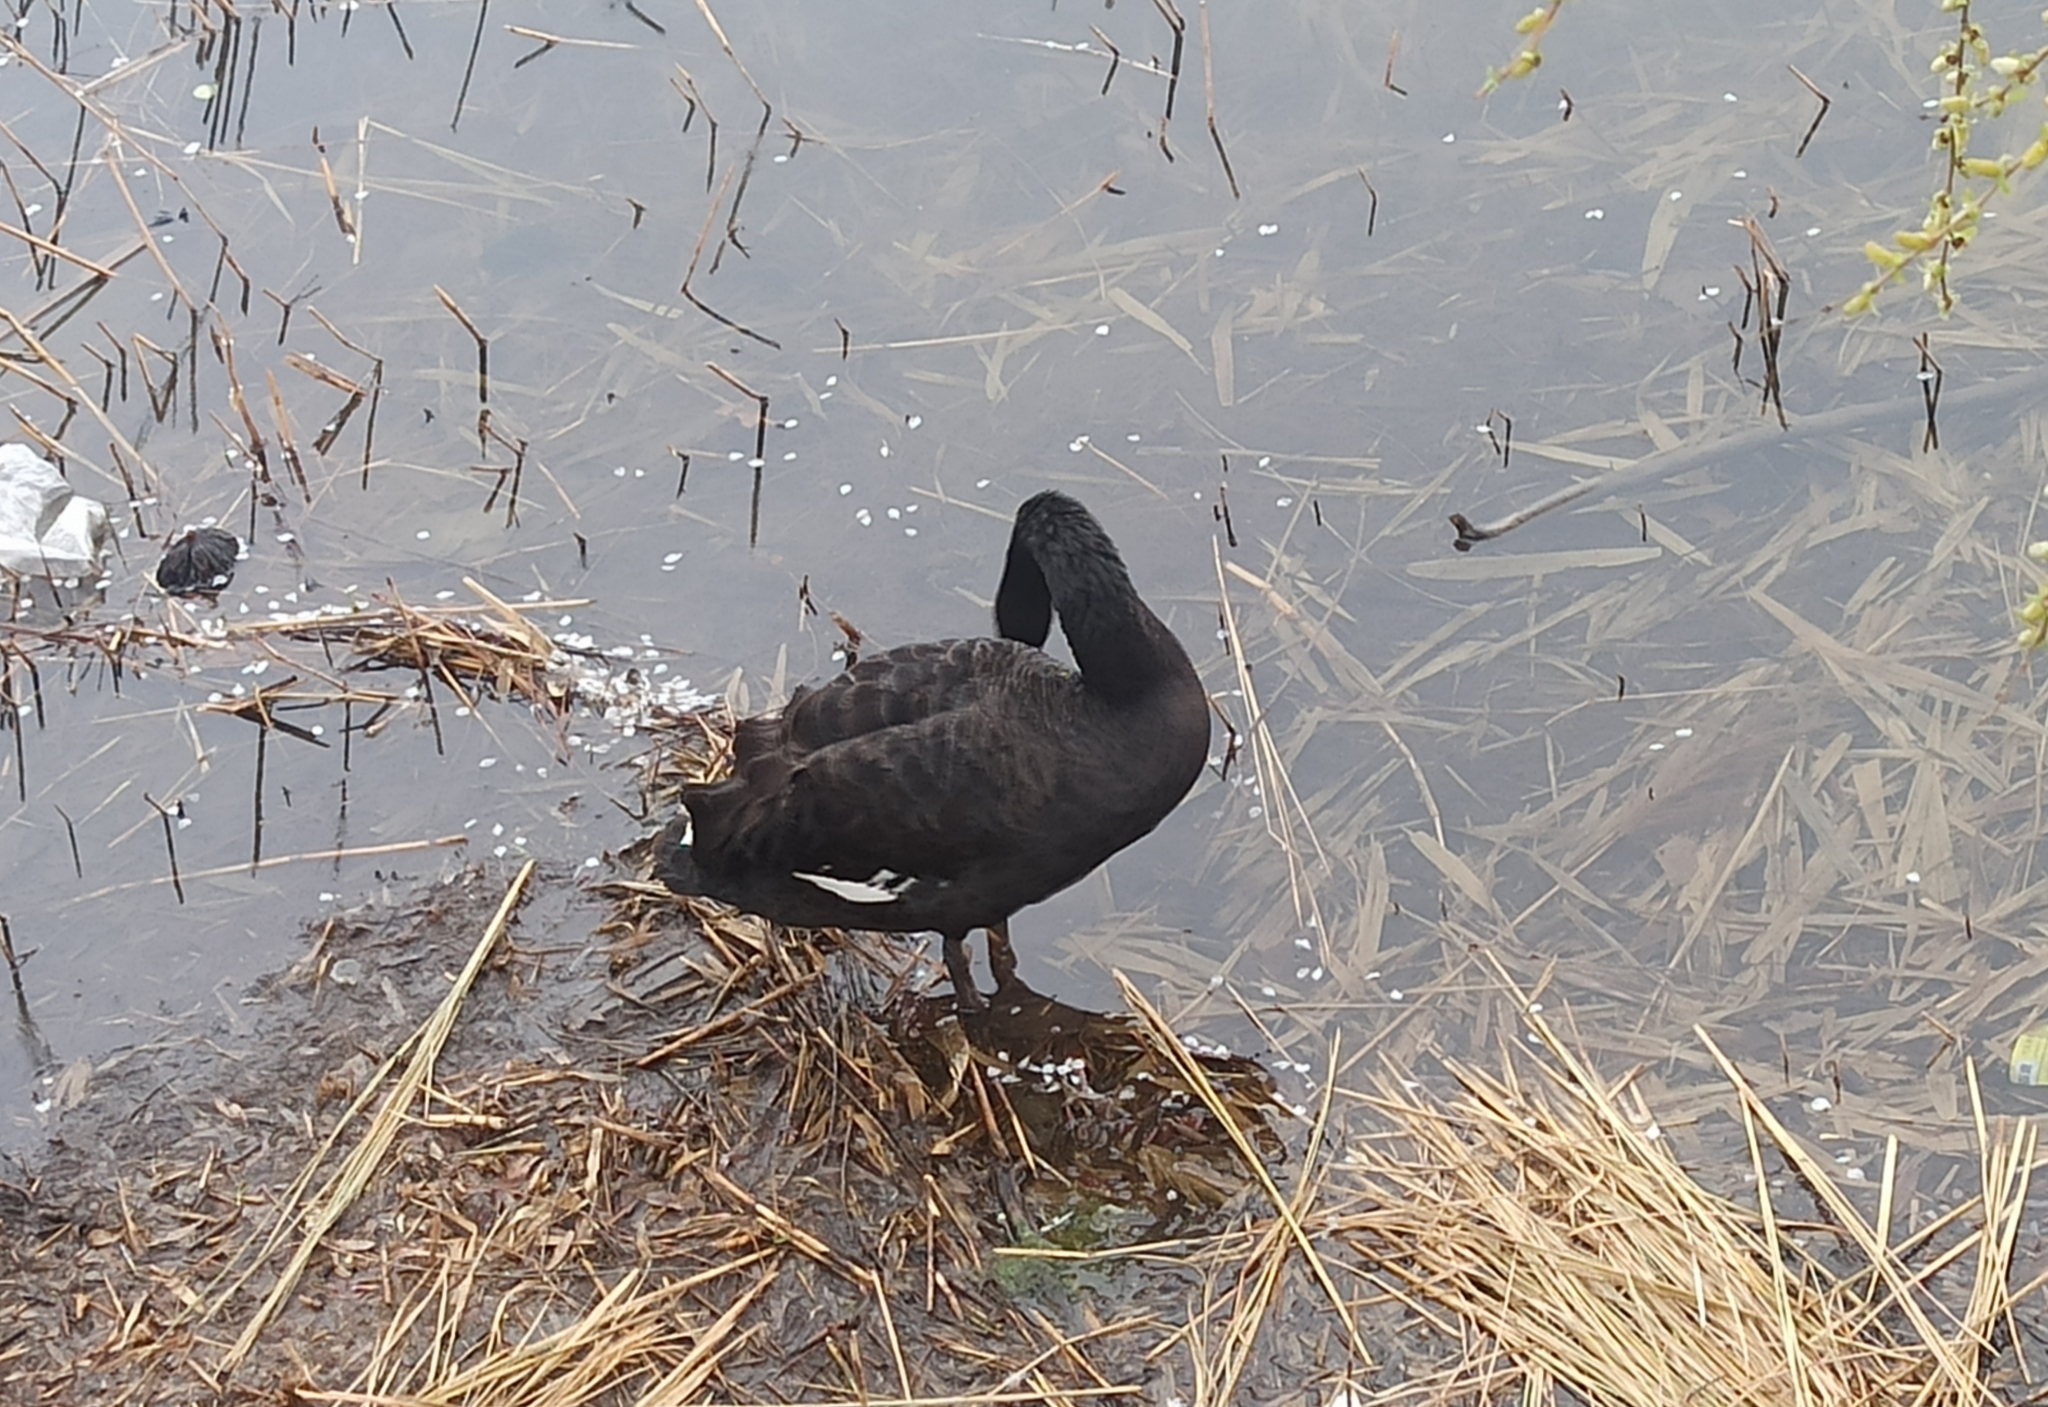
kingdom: Animalia
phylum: Chordata
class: Aves
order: Anseriformes
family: Anatidae
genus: Cygnus
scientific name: Cygnus atratus
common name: Black swan
